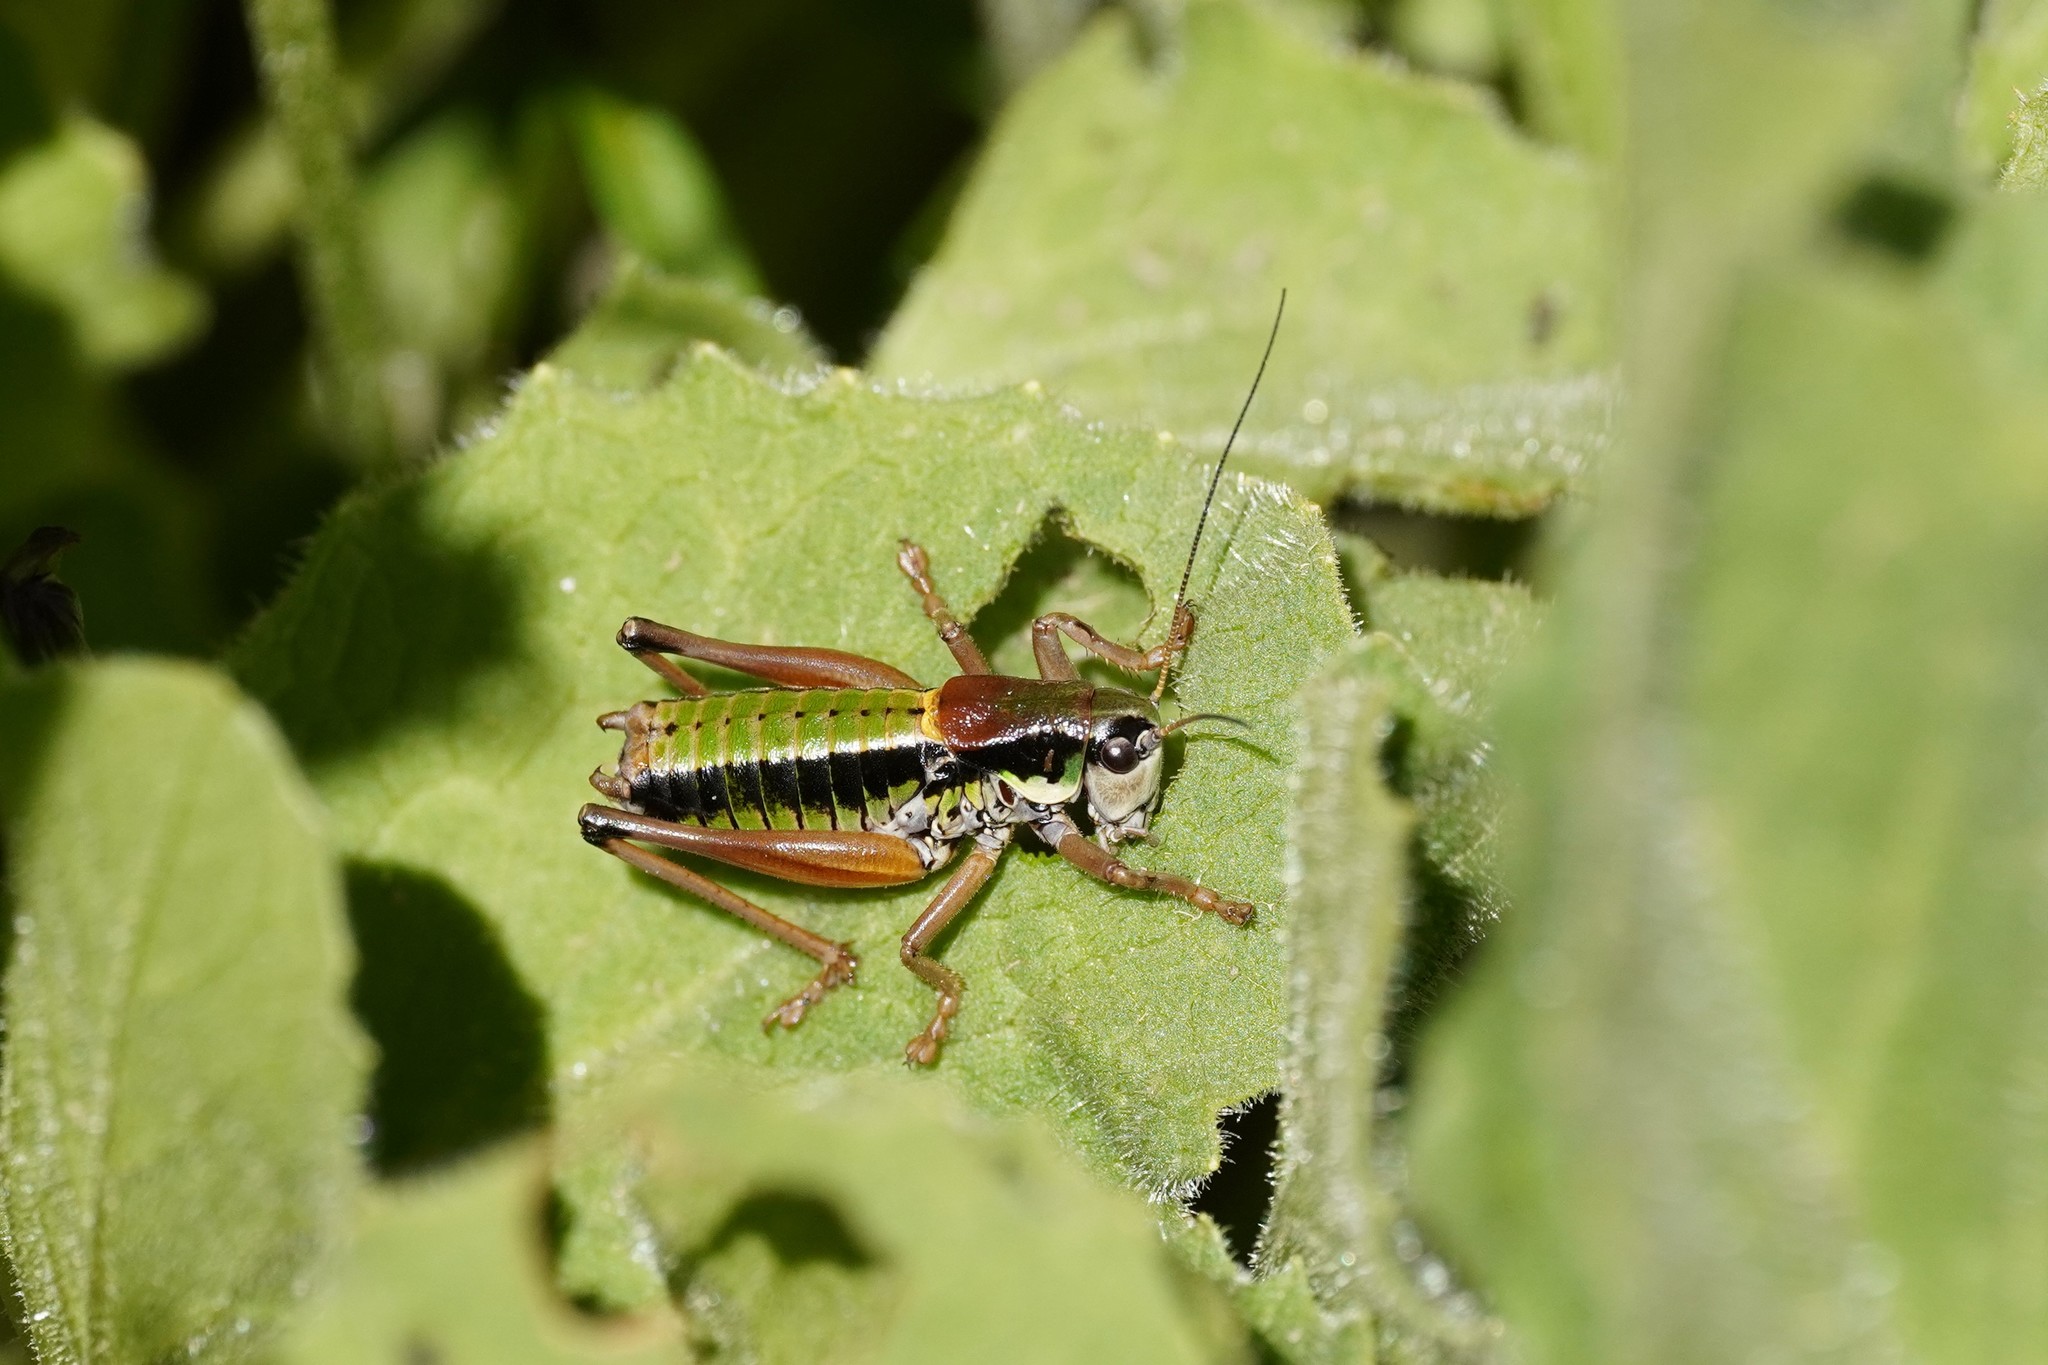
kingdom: Animalia
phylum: Arthropoda
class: Insecta
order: Orthoptera
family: Tettigoniidae
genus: Anonconotus
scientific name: Anonconotus occidentalis
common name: Western alpine bush-cricket
